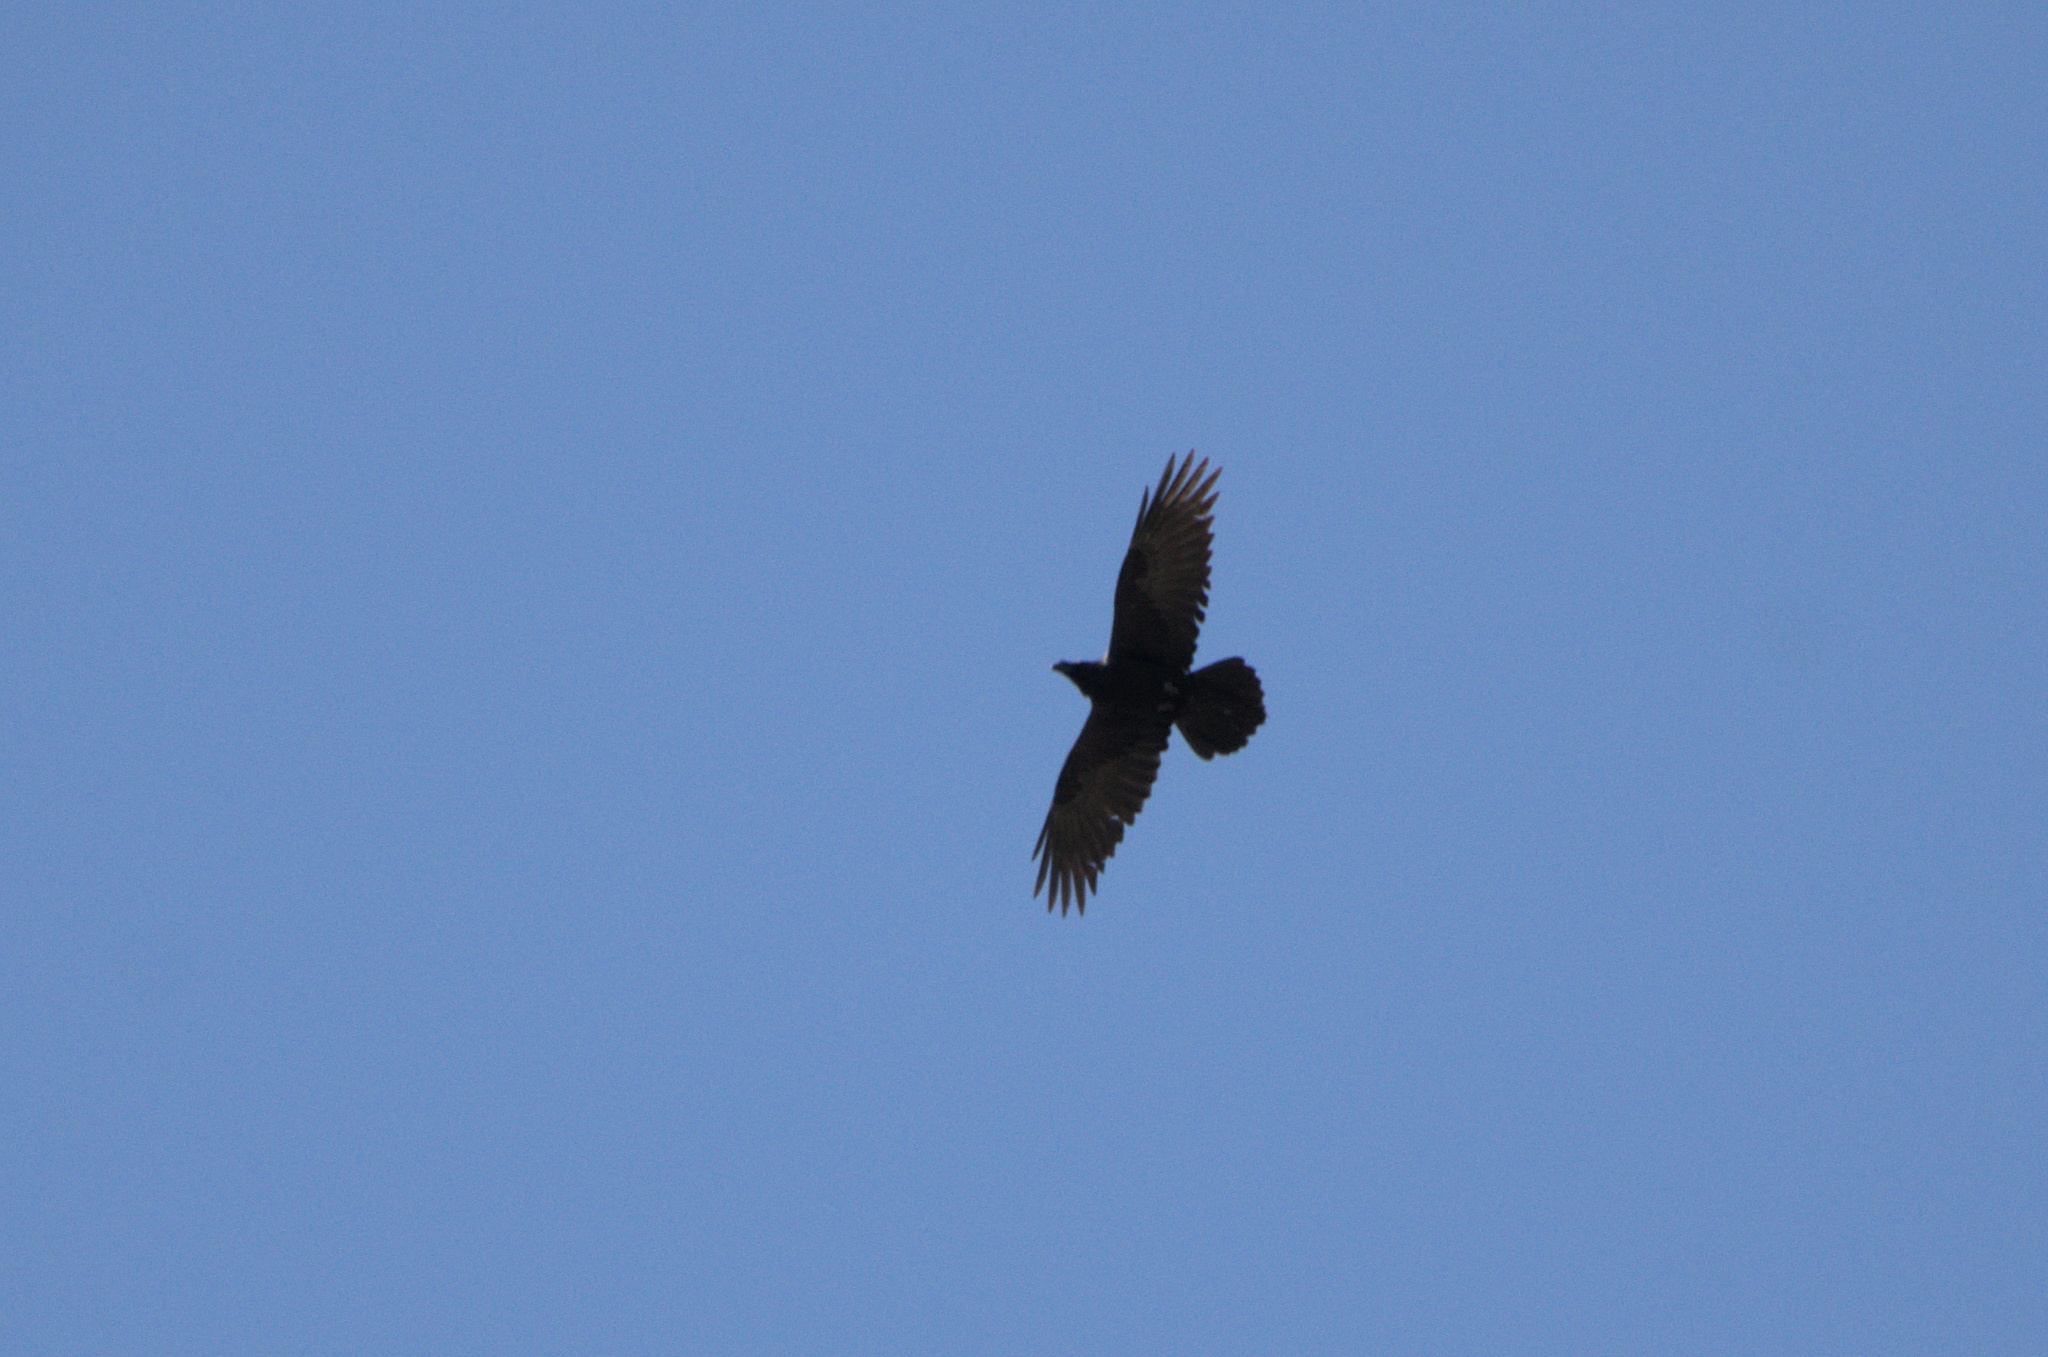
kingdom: Animalia
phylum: Chordata
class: Aves
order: Passeriformes
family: Corvidae
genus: Corvus
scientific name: Corvus corax
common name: Common raven
